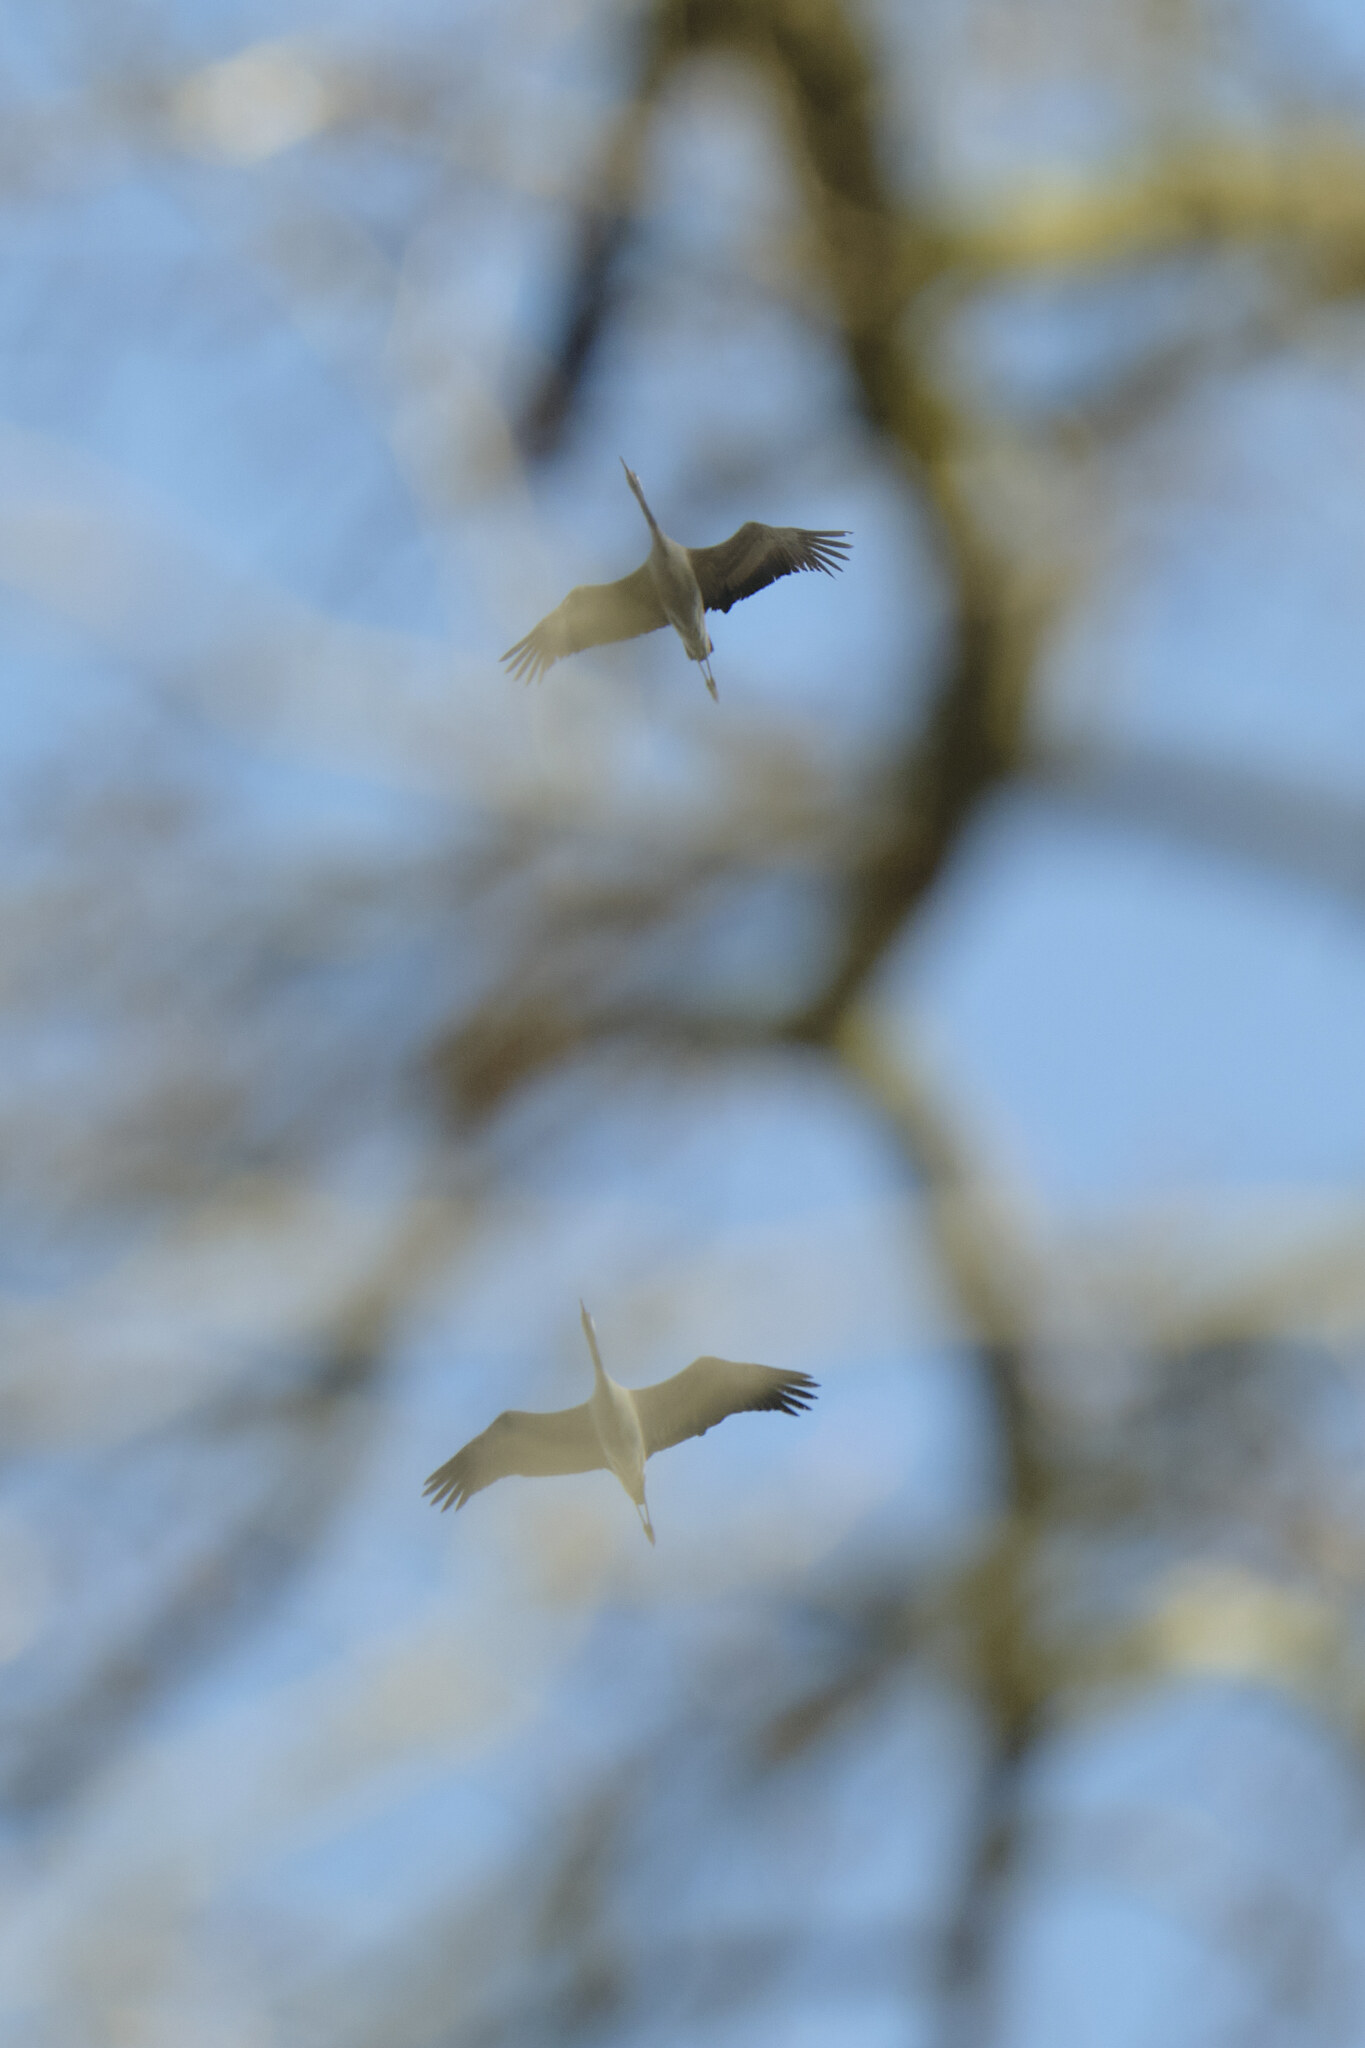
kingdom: Animalia
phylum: Chordata
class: Aves
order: Gruiformes
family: Gruidae
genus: Grus
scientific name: Grus grus
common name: Common crane
